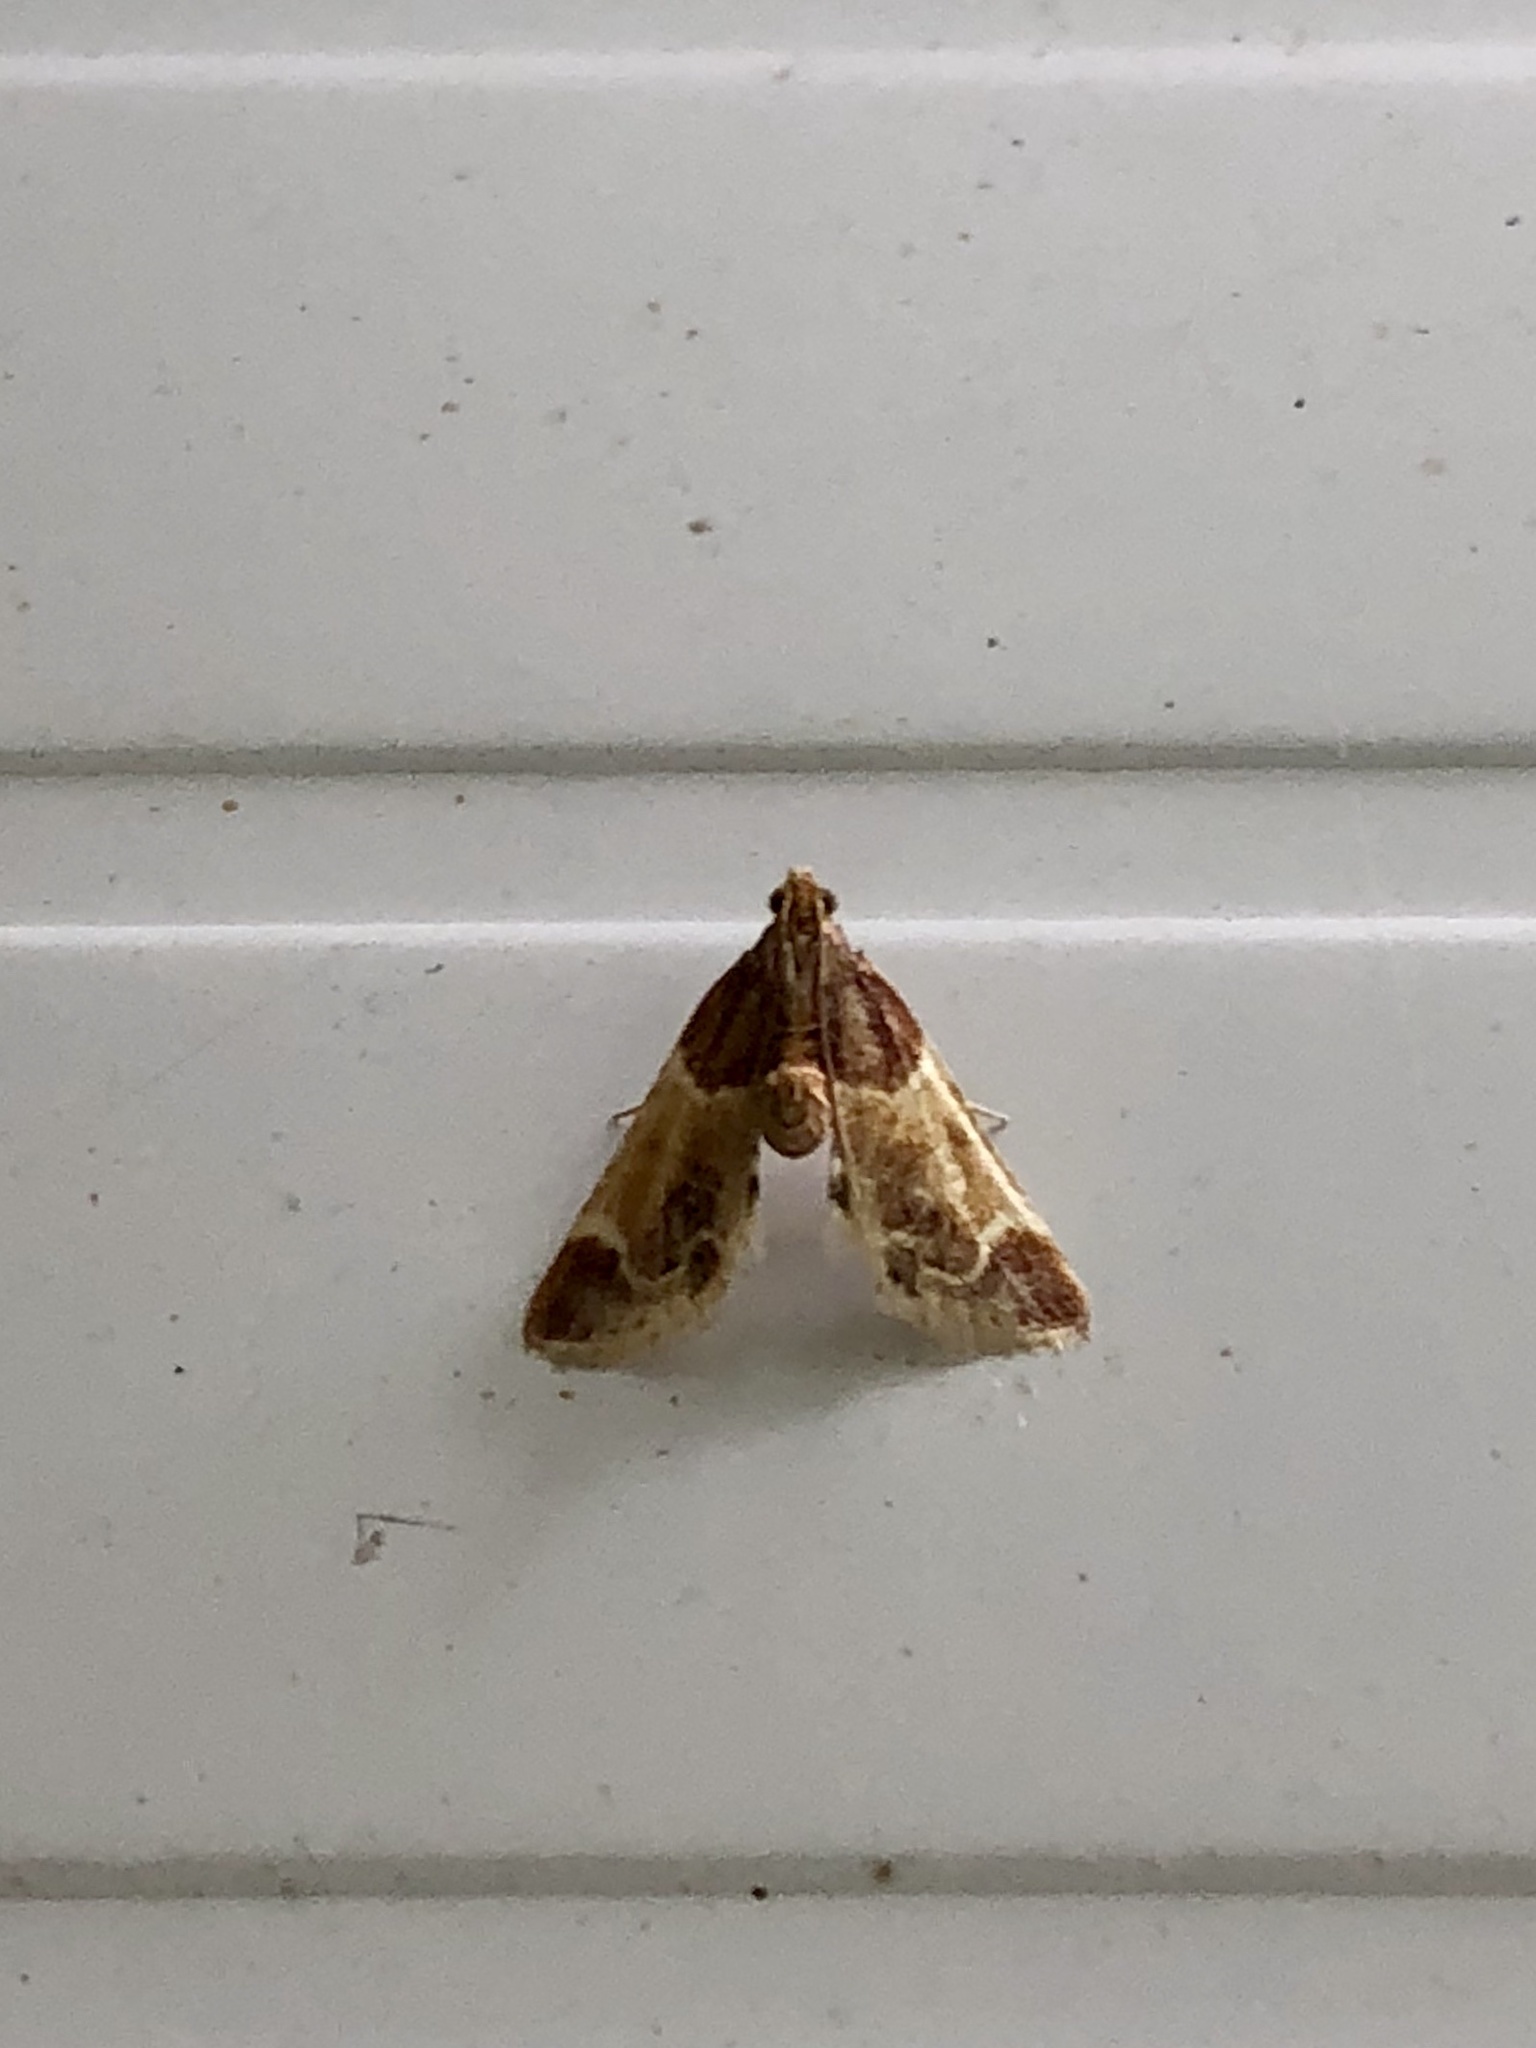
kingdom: Animalia
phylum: Arthropoda
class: Insecta
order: Lepidoptera
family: Pyralidae
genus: Pyralis
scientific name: Pyralis farinalis
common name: Meal moth
